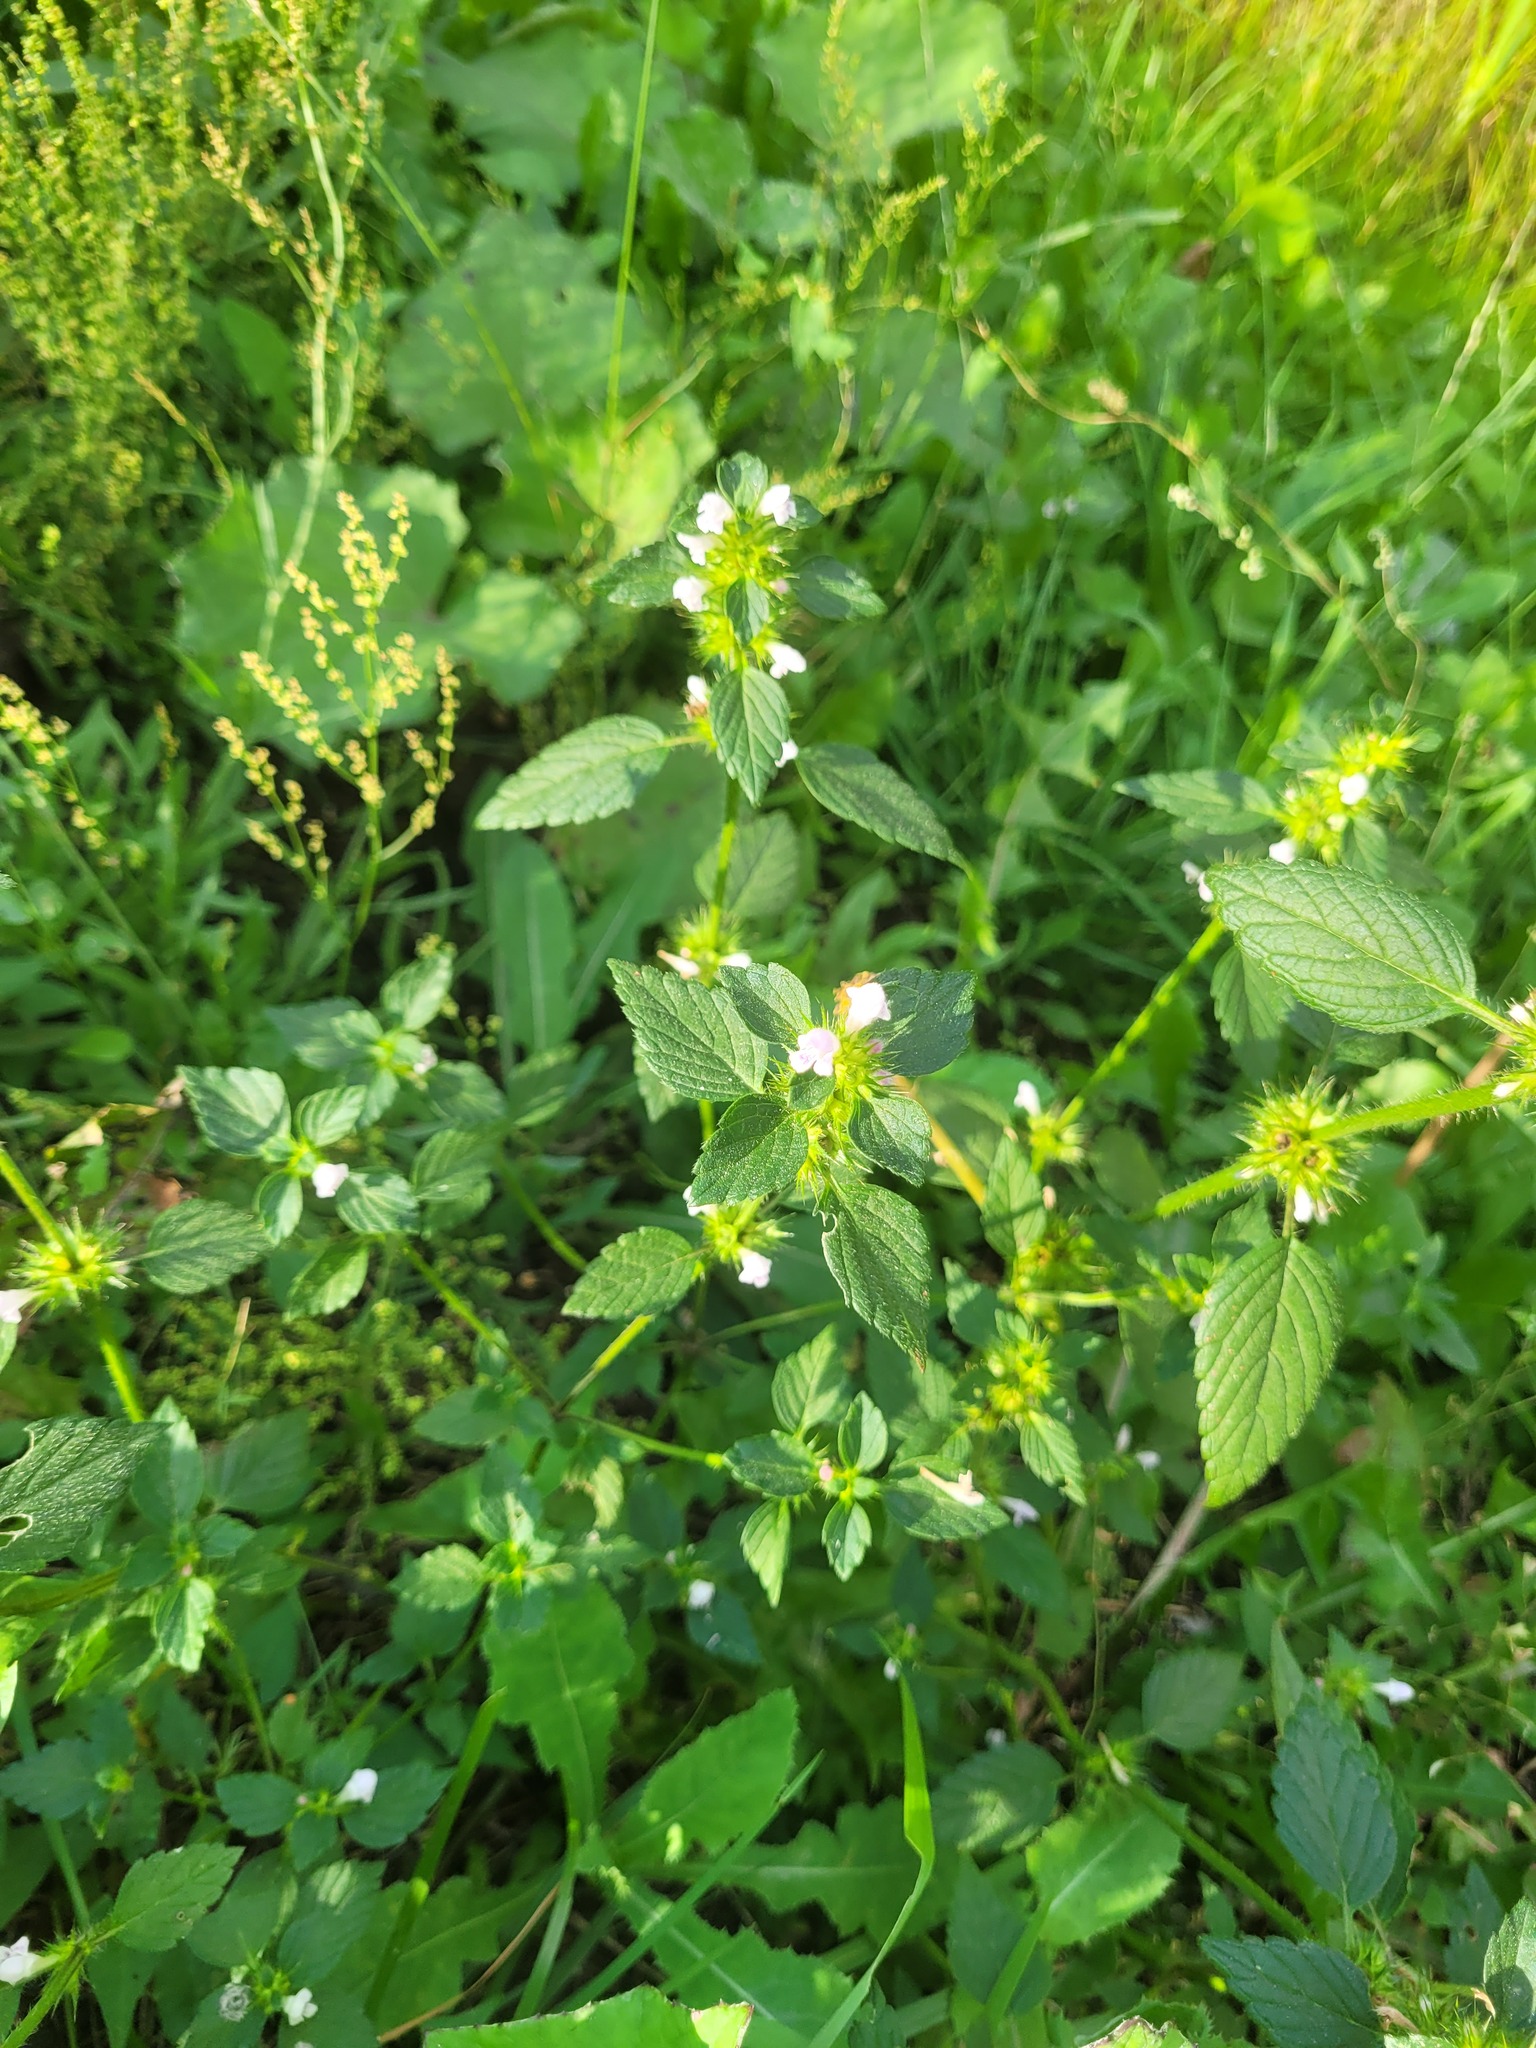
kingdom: Plantae
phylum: Tracheophyta
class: Magnoliopsida
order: Lamiales
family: Lamiaceae
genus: Galeopsis
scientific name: Galeopsis tetrahit
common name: Common hemp-nettle
